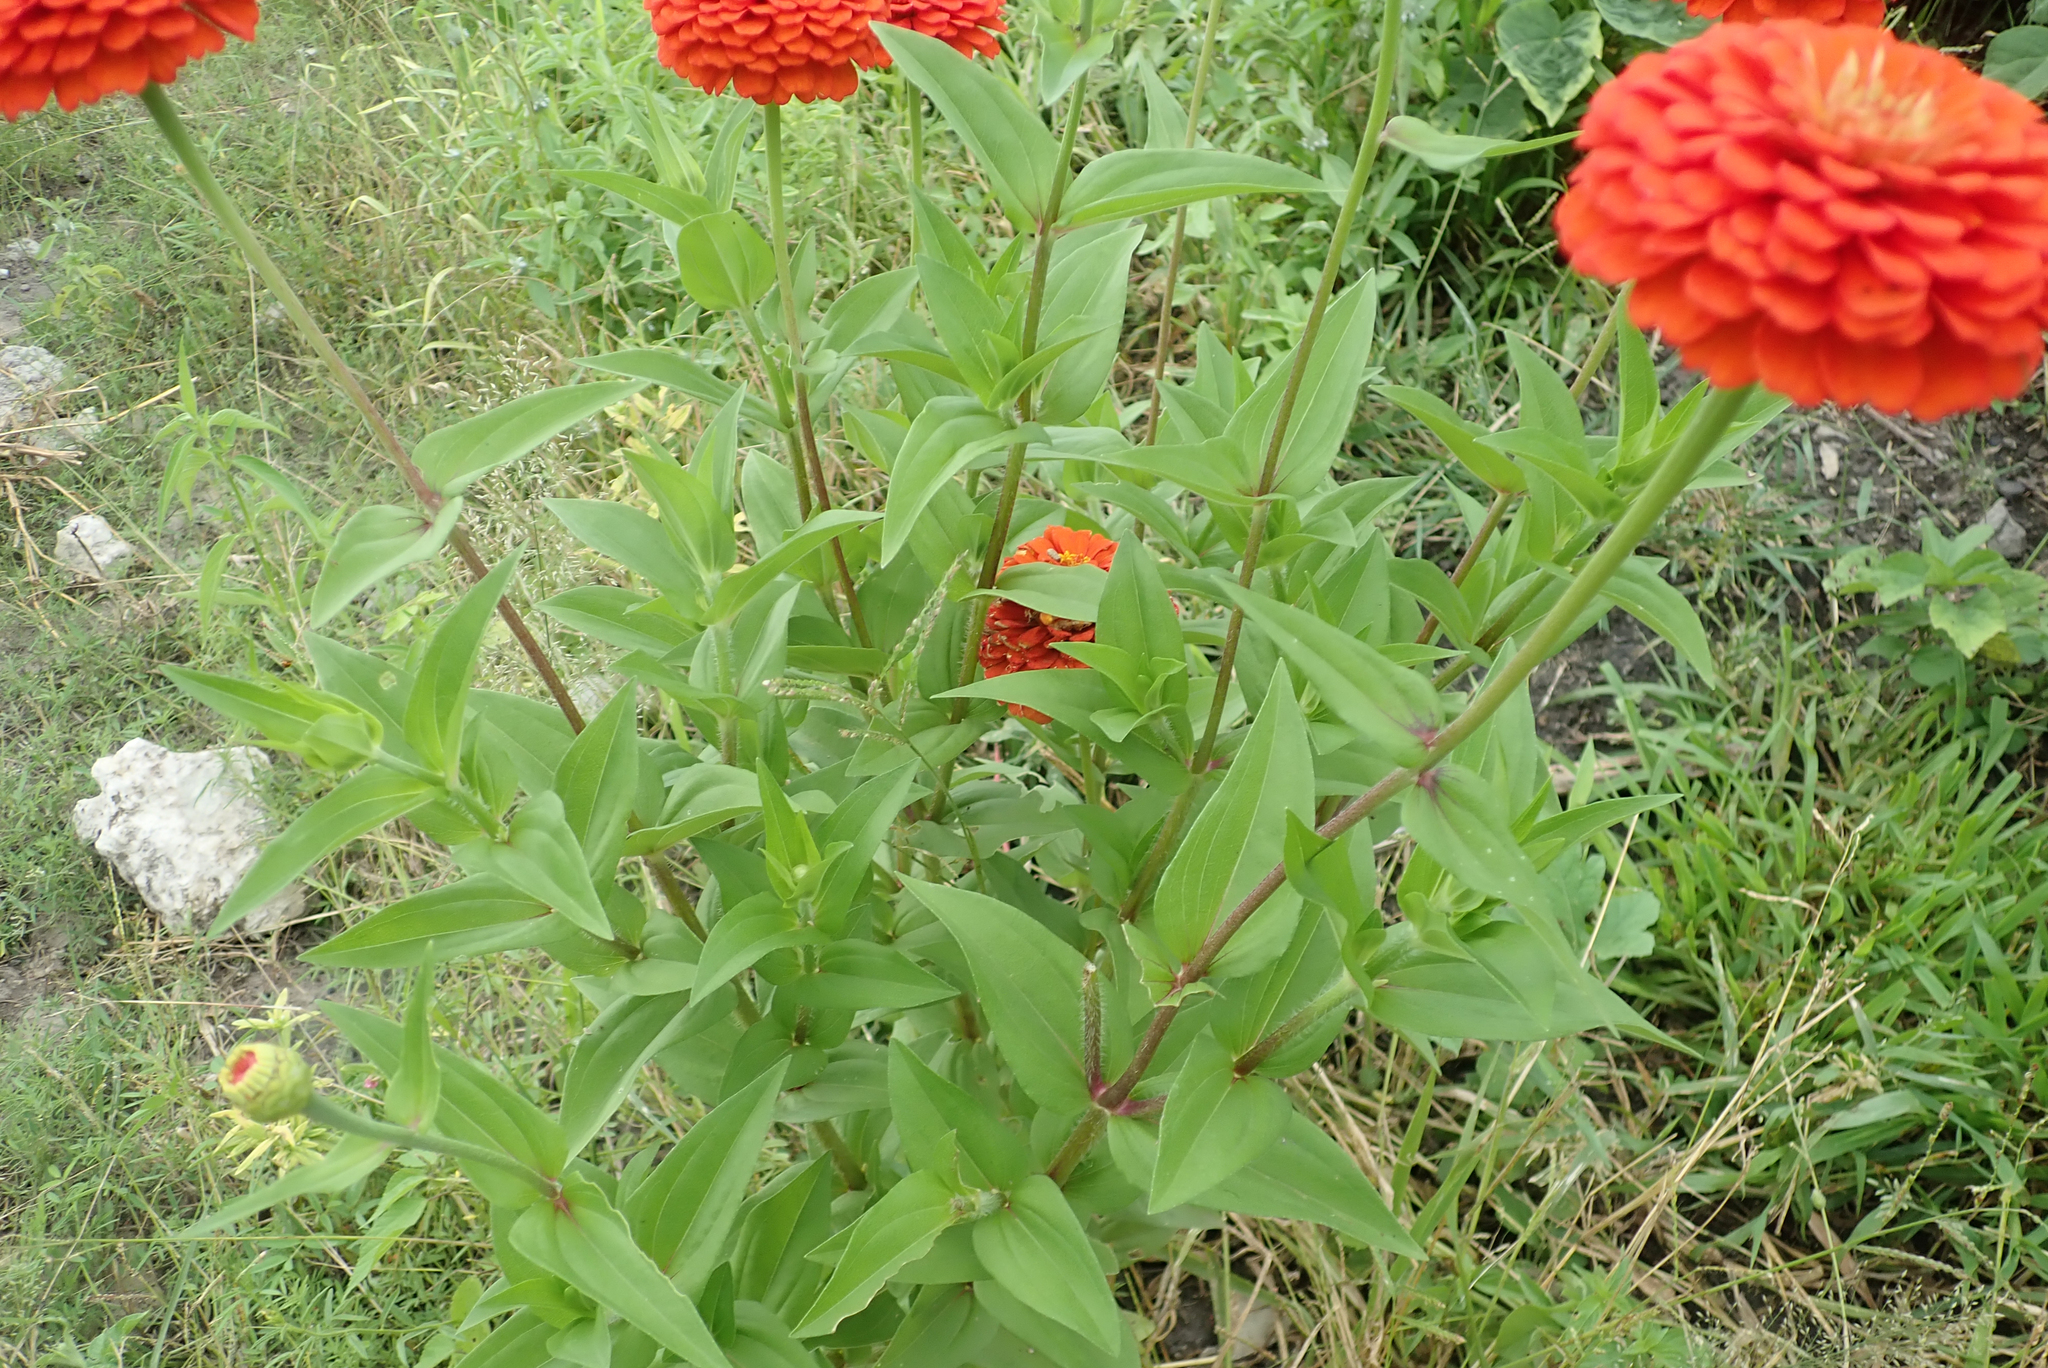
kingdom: Plantae
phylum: Tracheophyta
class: Magnoliopsida
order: Asterales
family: Asteraceae
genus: Zinnia
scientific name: Zinnia elegans
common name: Youth-and-age
